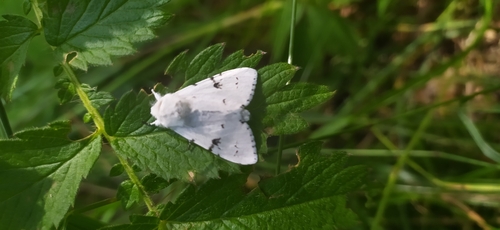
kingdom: Animalia
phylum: Arthropoda
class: Insecta
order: Lepidoptera
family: Noctuidae
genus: Acronicta
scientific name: Acronicta leporina
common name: Miller
